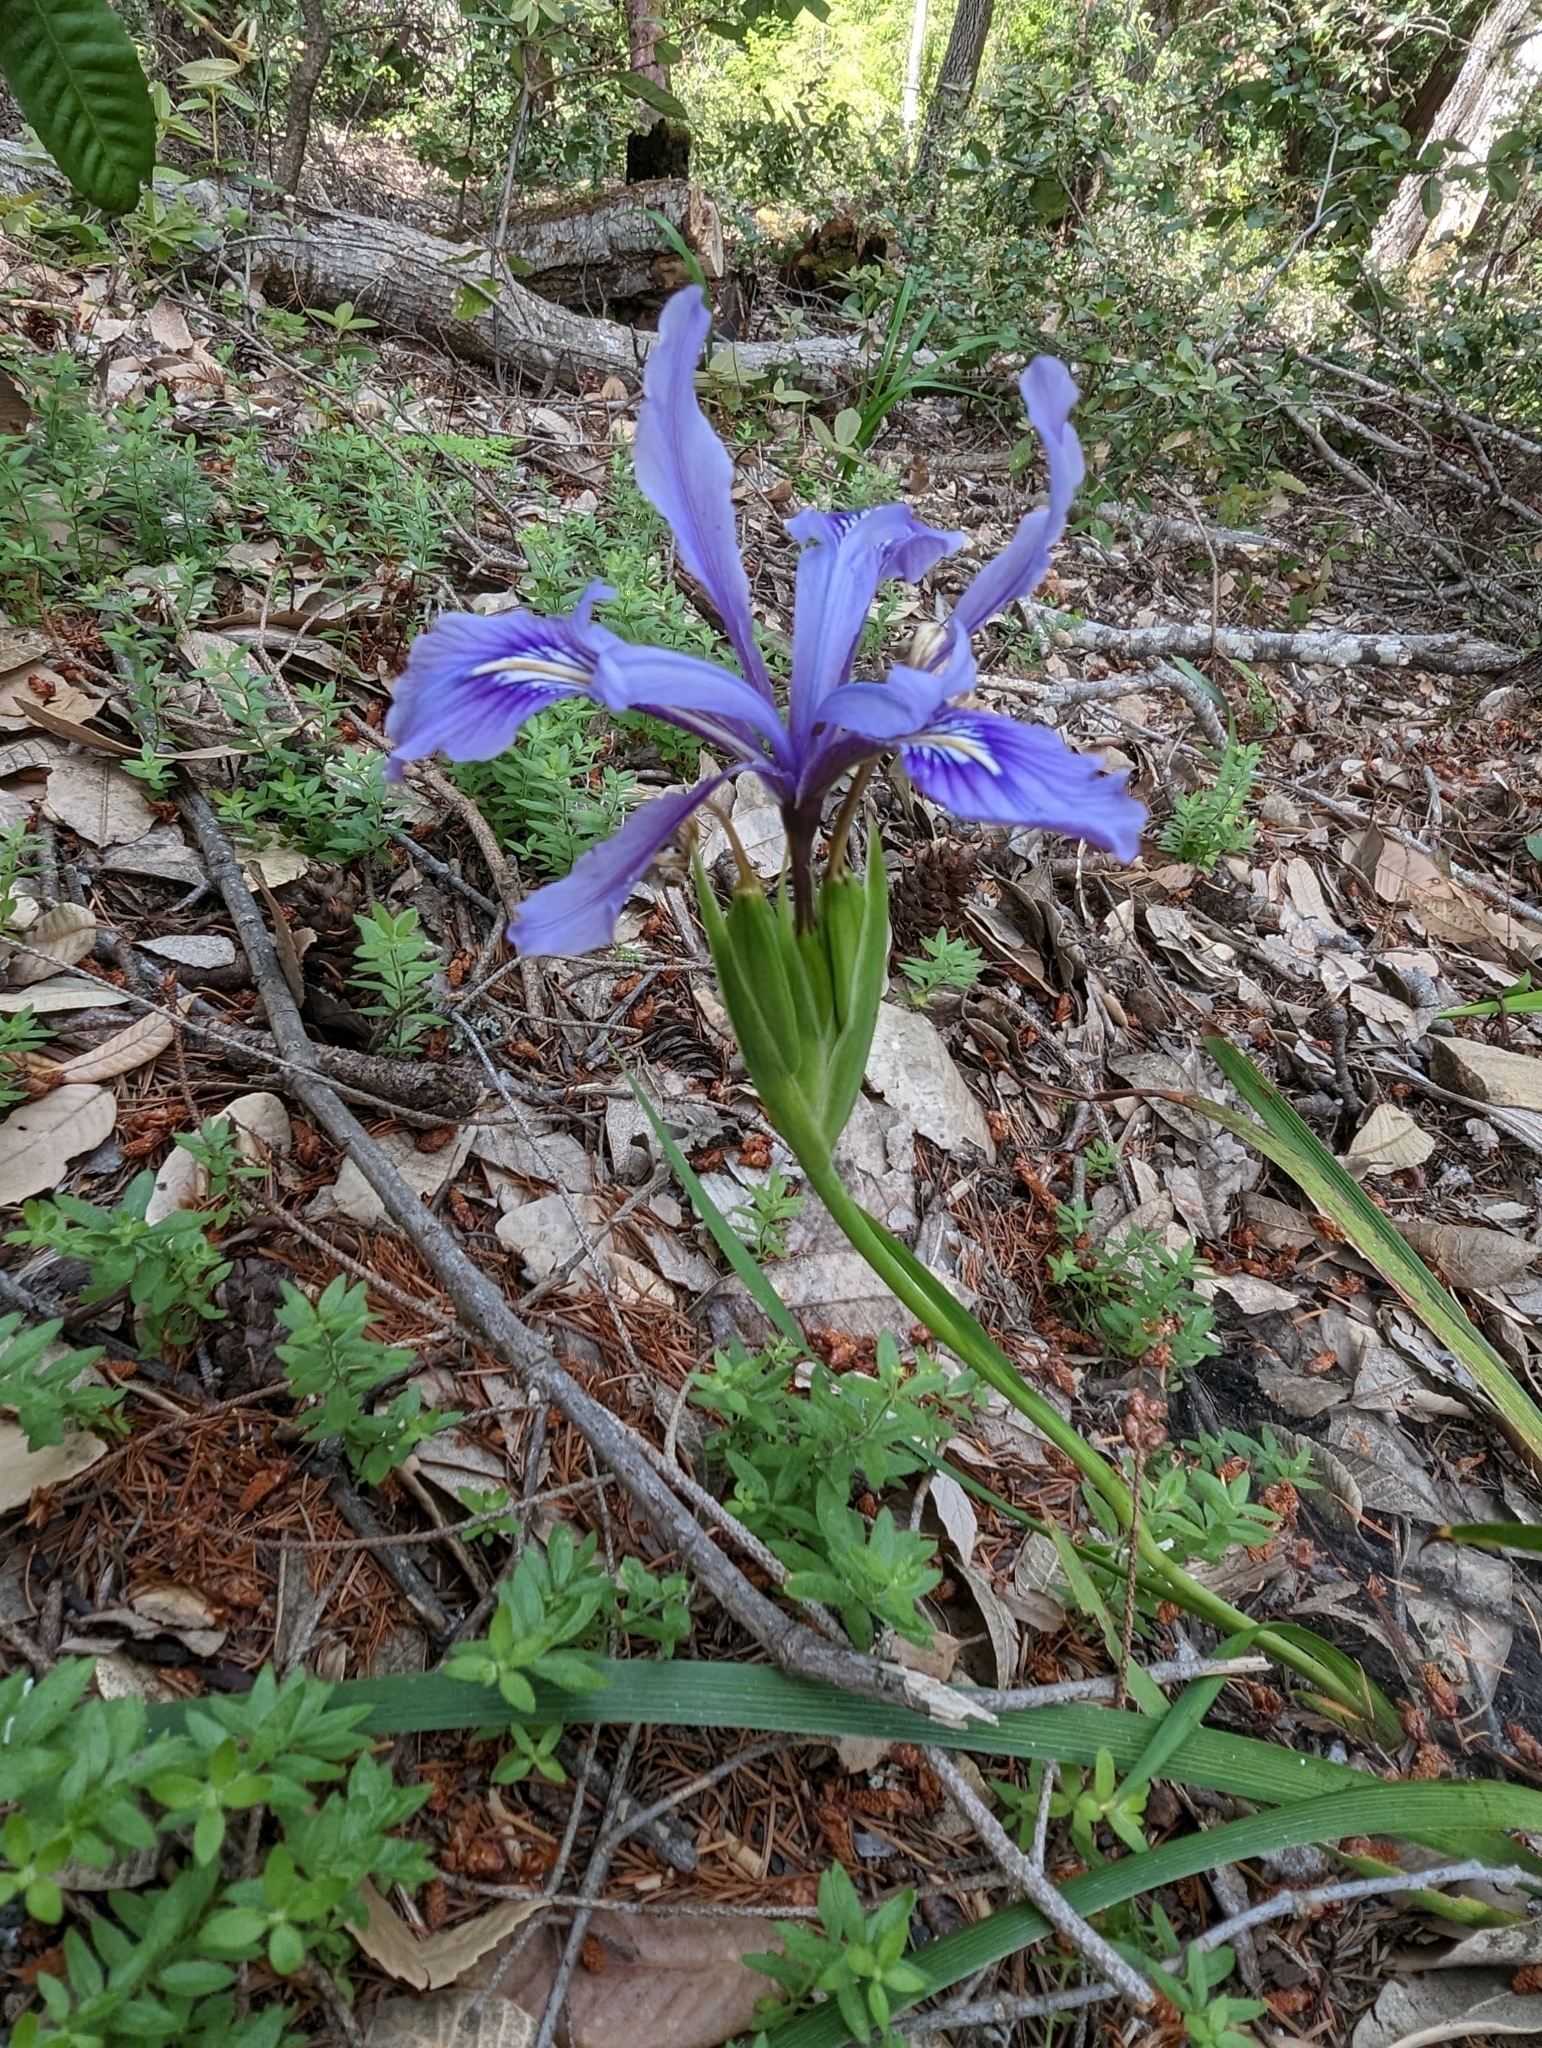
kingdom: Plantae
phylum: Tracheophyta
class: Liliopsida
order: Asparagales
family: Iridaceae
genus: Iris
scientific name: Iris douglasiana
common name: Marin iris
